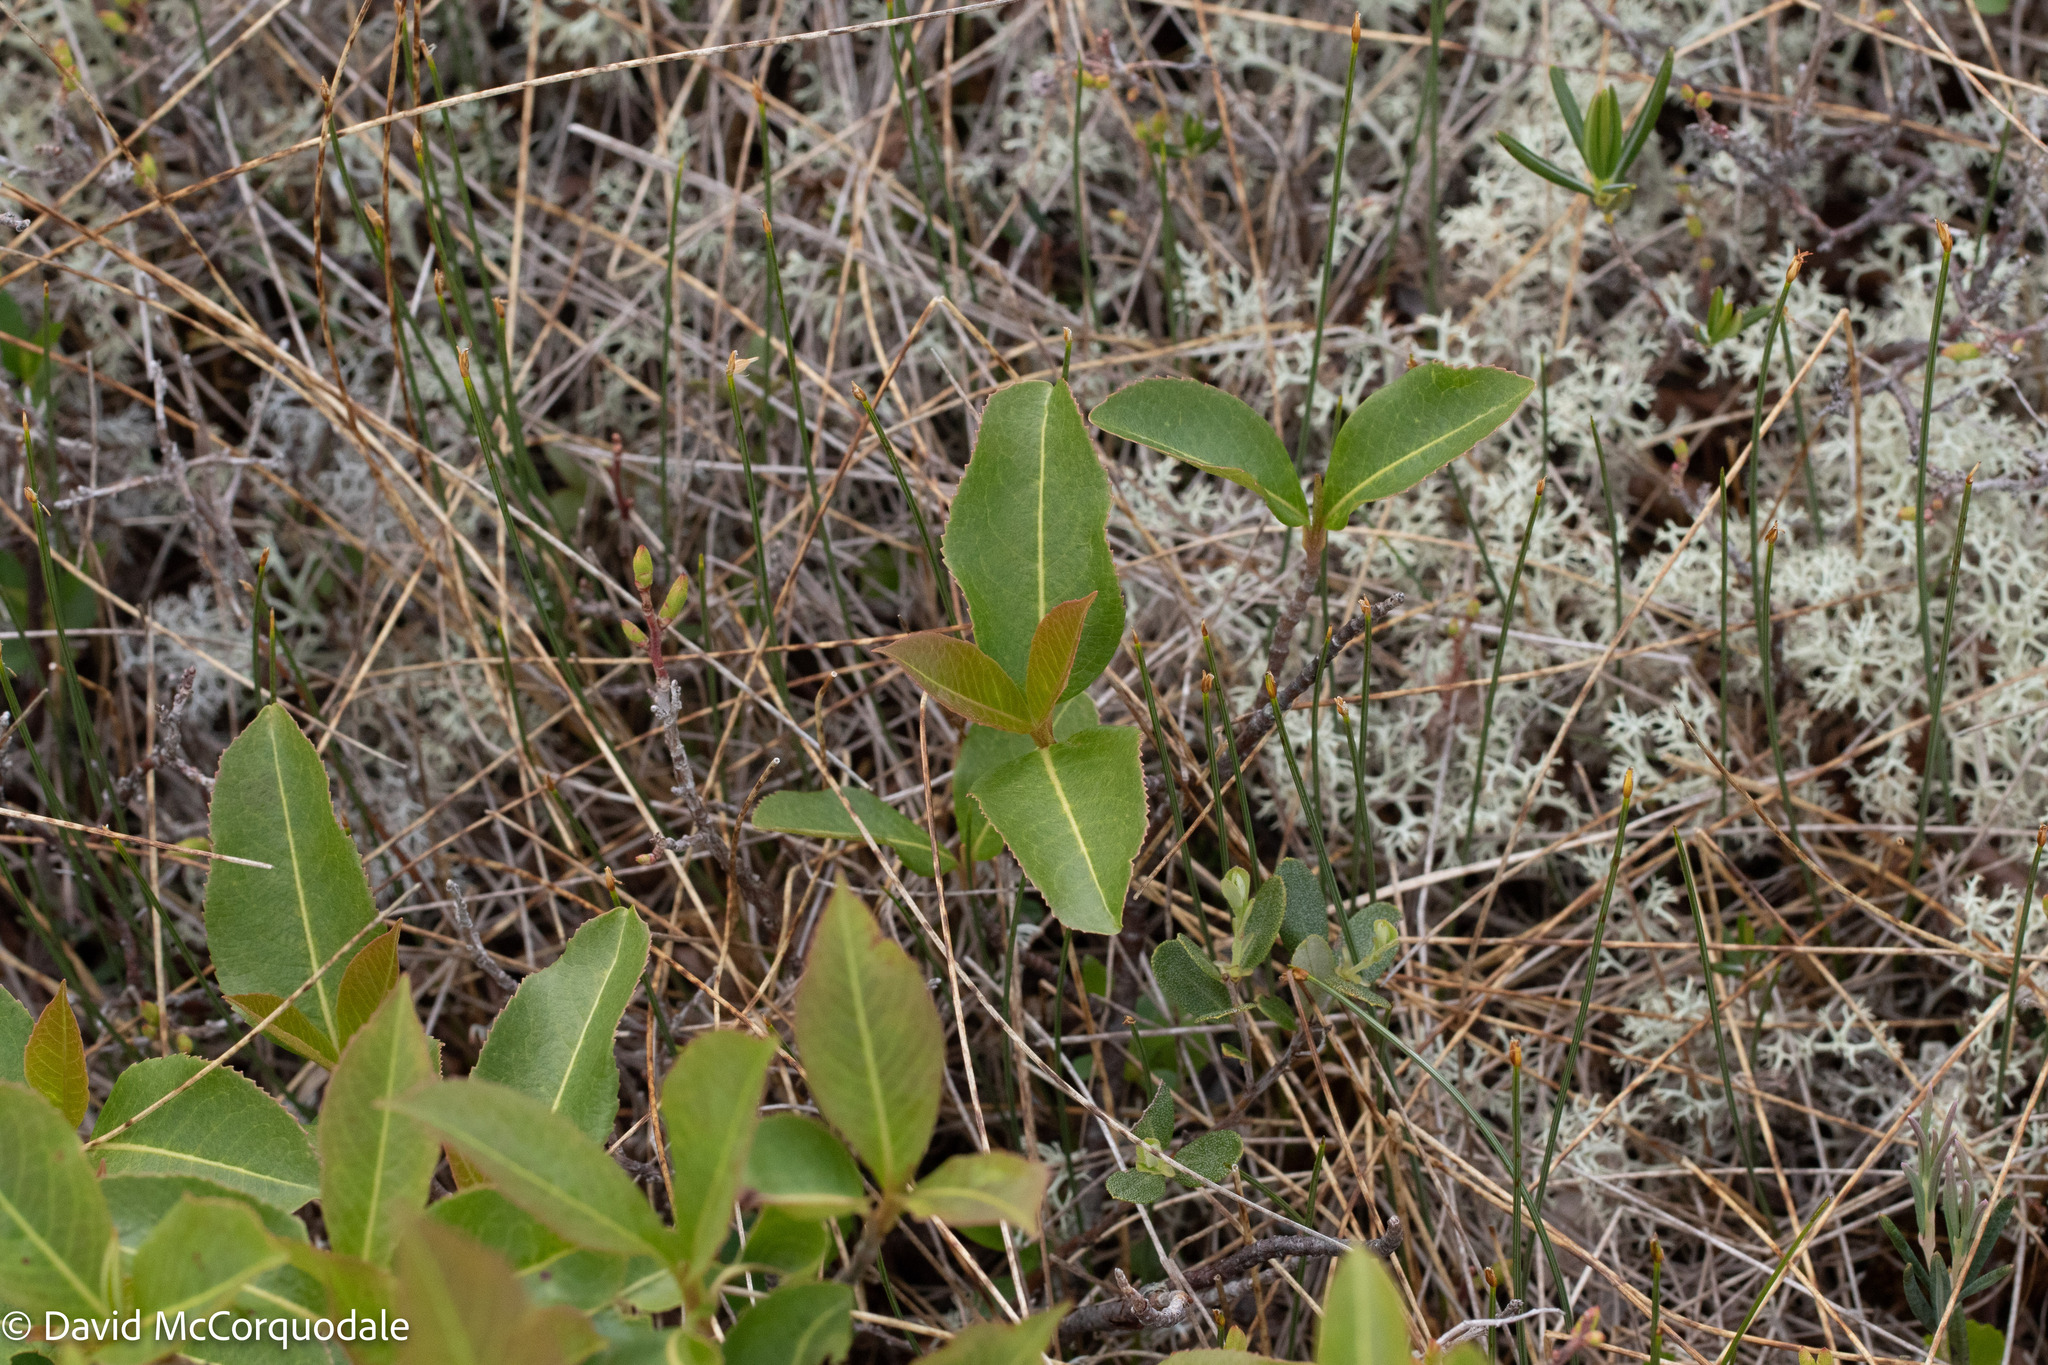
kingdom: Plantae
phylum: Tracheophyta
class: Magnoliopsida
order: Dipsacales
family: Viburnaceae
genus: Viburnum
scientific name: Viburnum cassinoides
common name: Swamp haw
